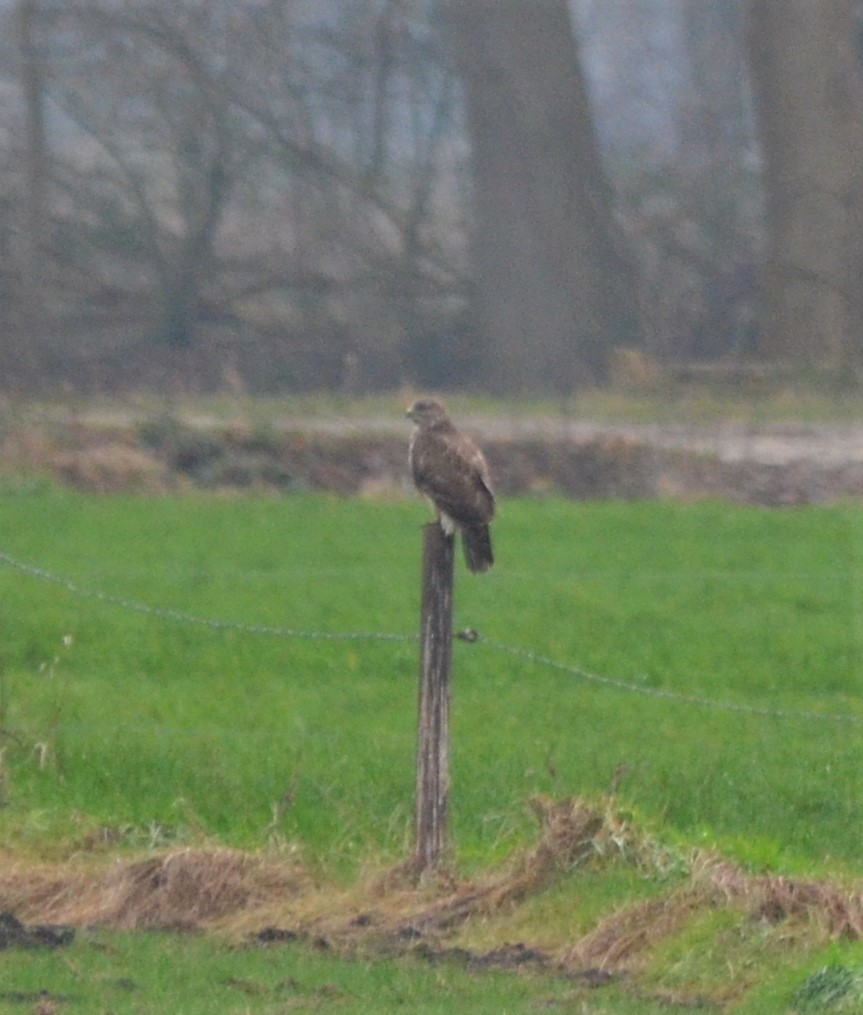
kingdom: Animalia
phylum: Chordata
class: Aves
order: Accipitriformes
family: Accipitridae
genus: Buteo
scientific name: Buteo buteo
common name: Common buzzard
